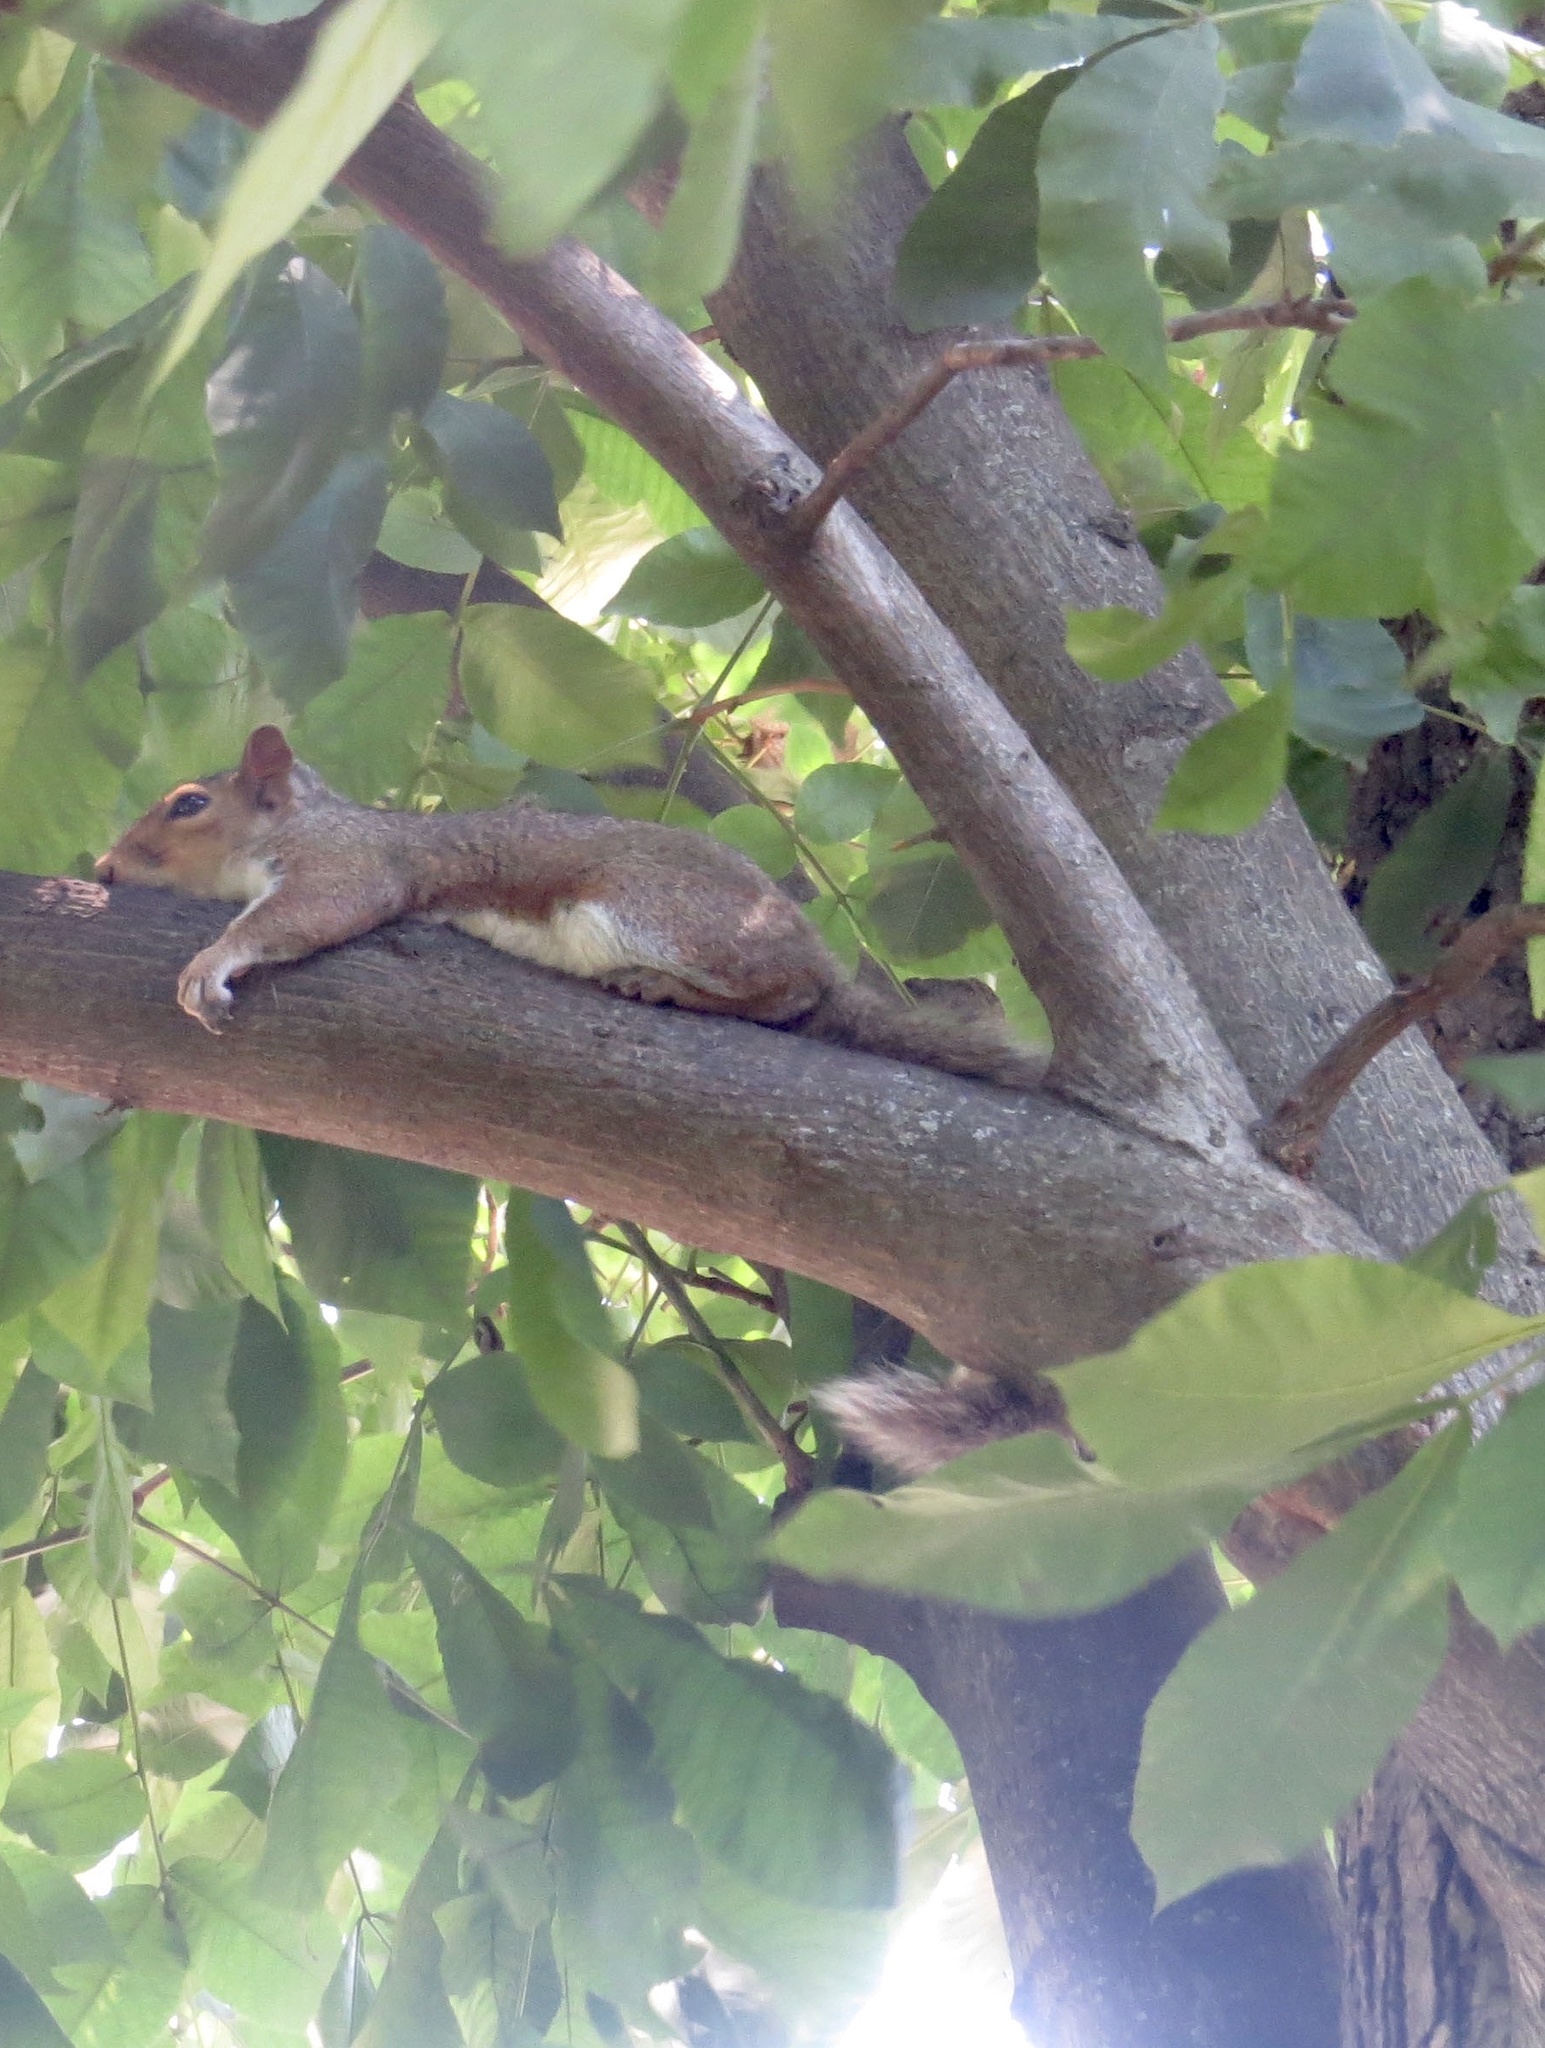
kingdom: Animalia
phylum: Chordata
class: Mammalia
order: Rodentia
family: Sciuridae
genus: Sciurus
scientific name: Sciurus carolinensis
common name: Eastern gray squirrel
